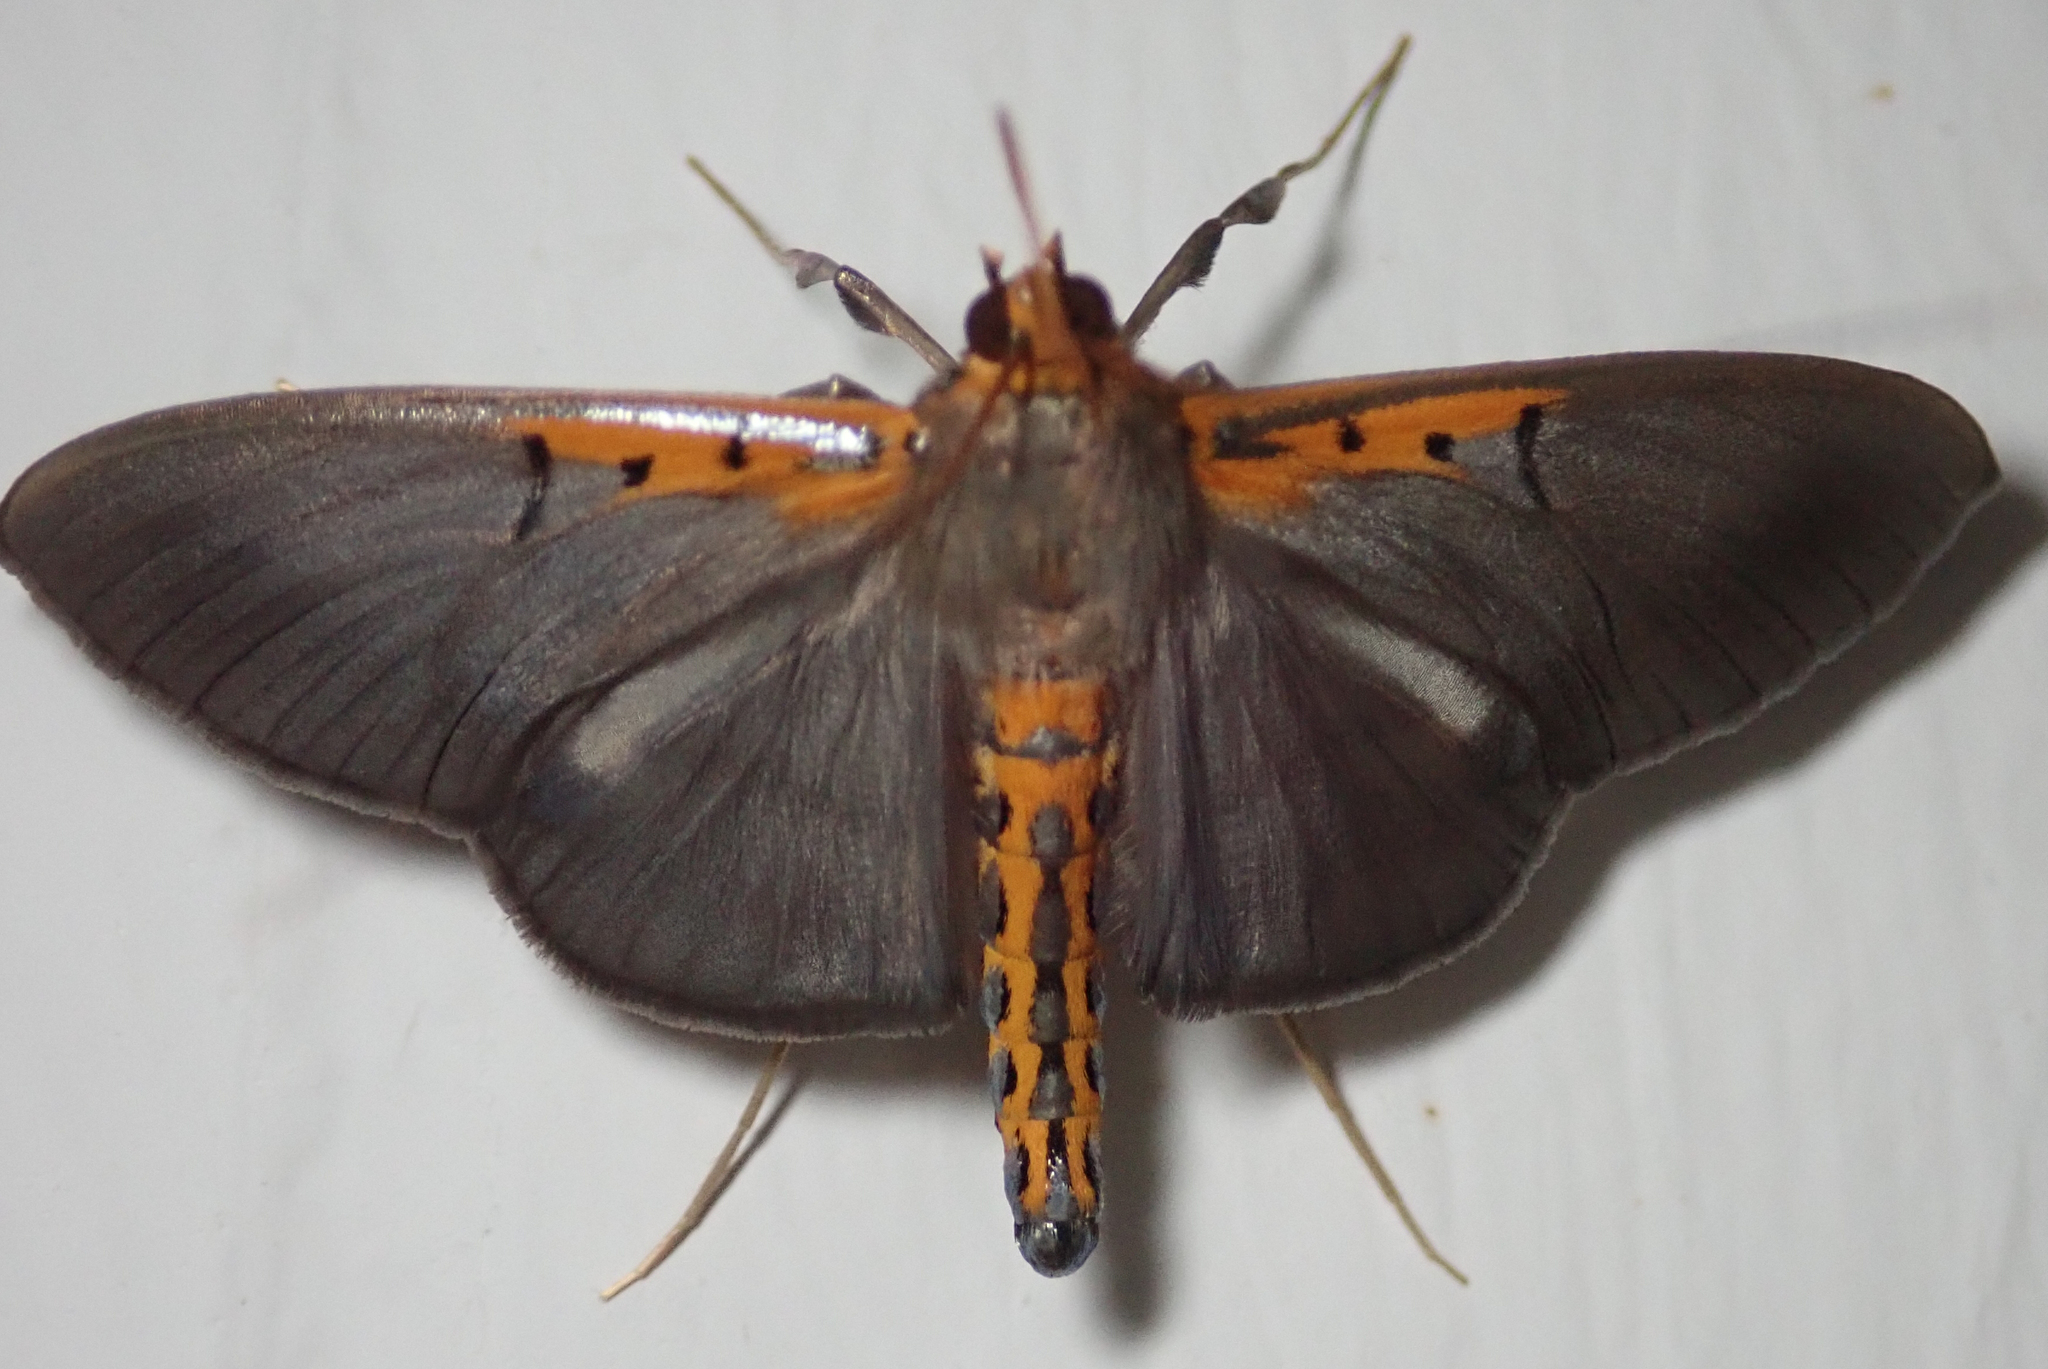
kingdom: Animalia
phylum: Arthropoda
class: Insecta
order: Lepidoptera
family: Crambidae
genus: Filodes
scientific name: Filodes costivitralis
